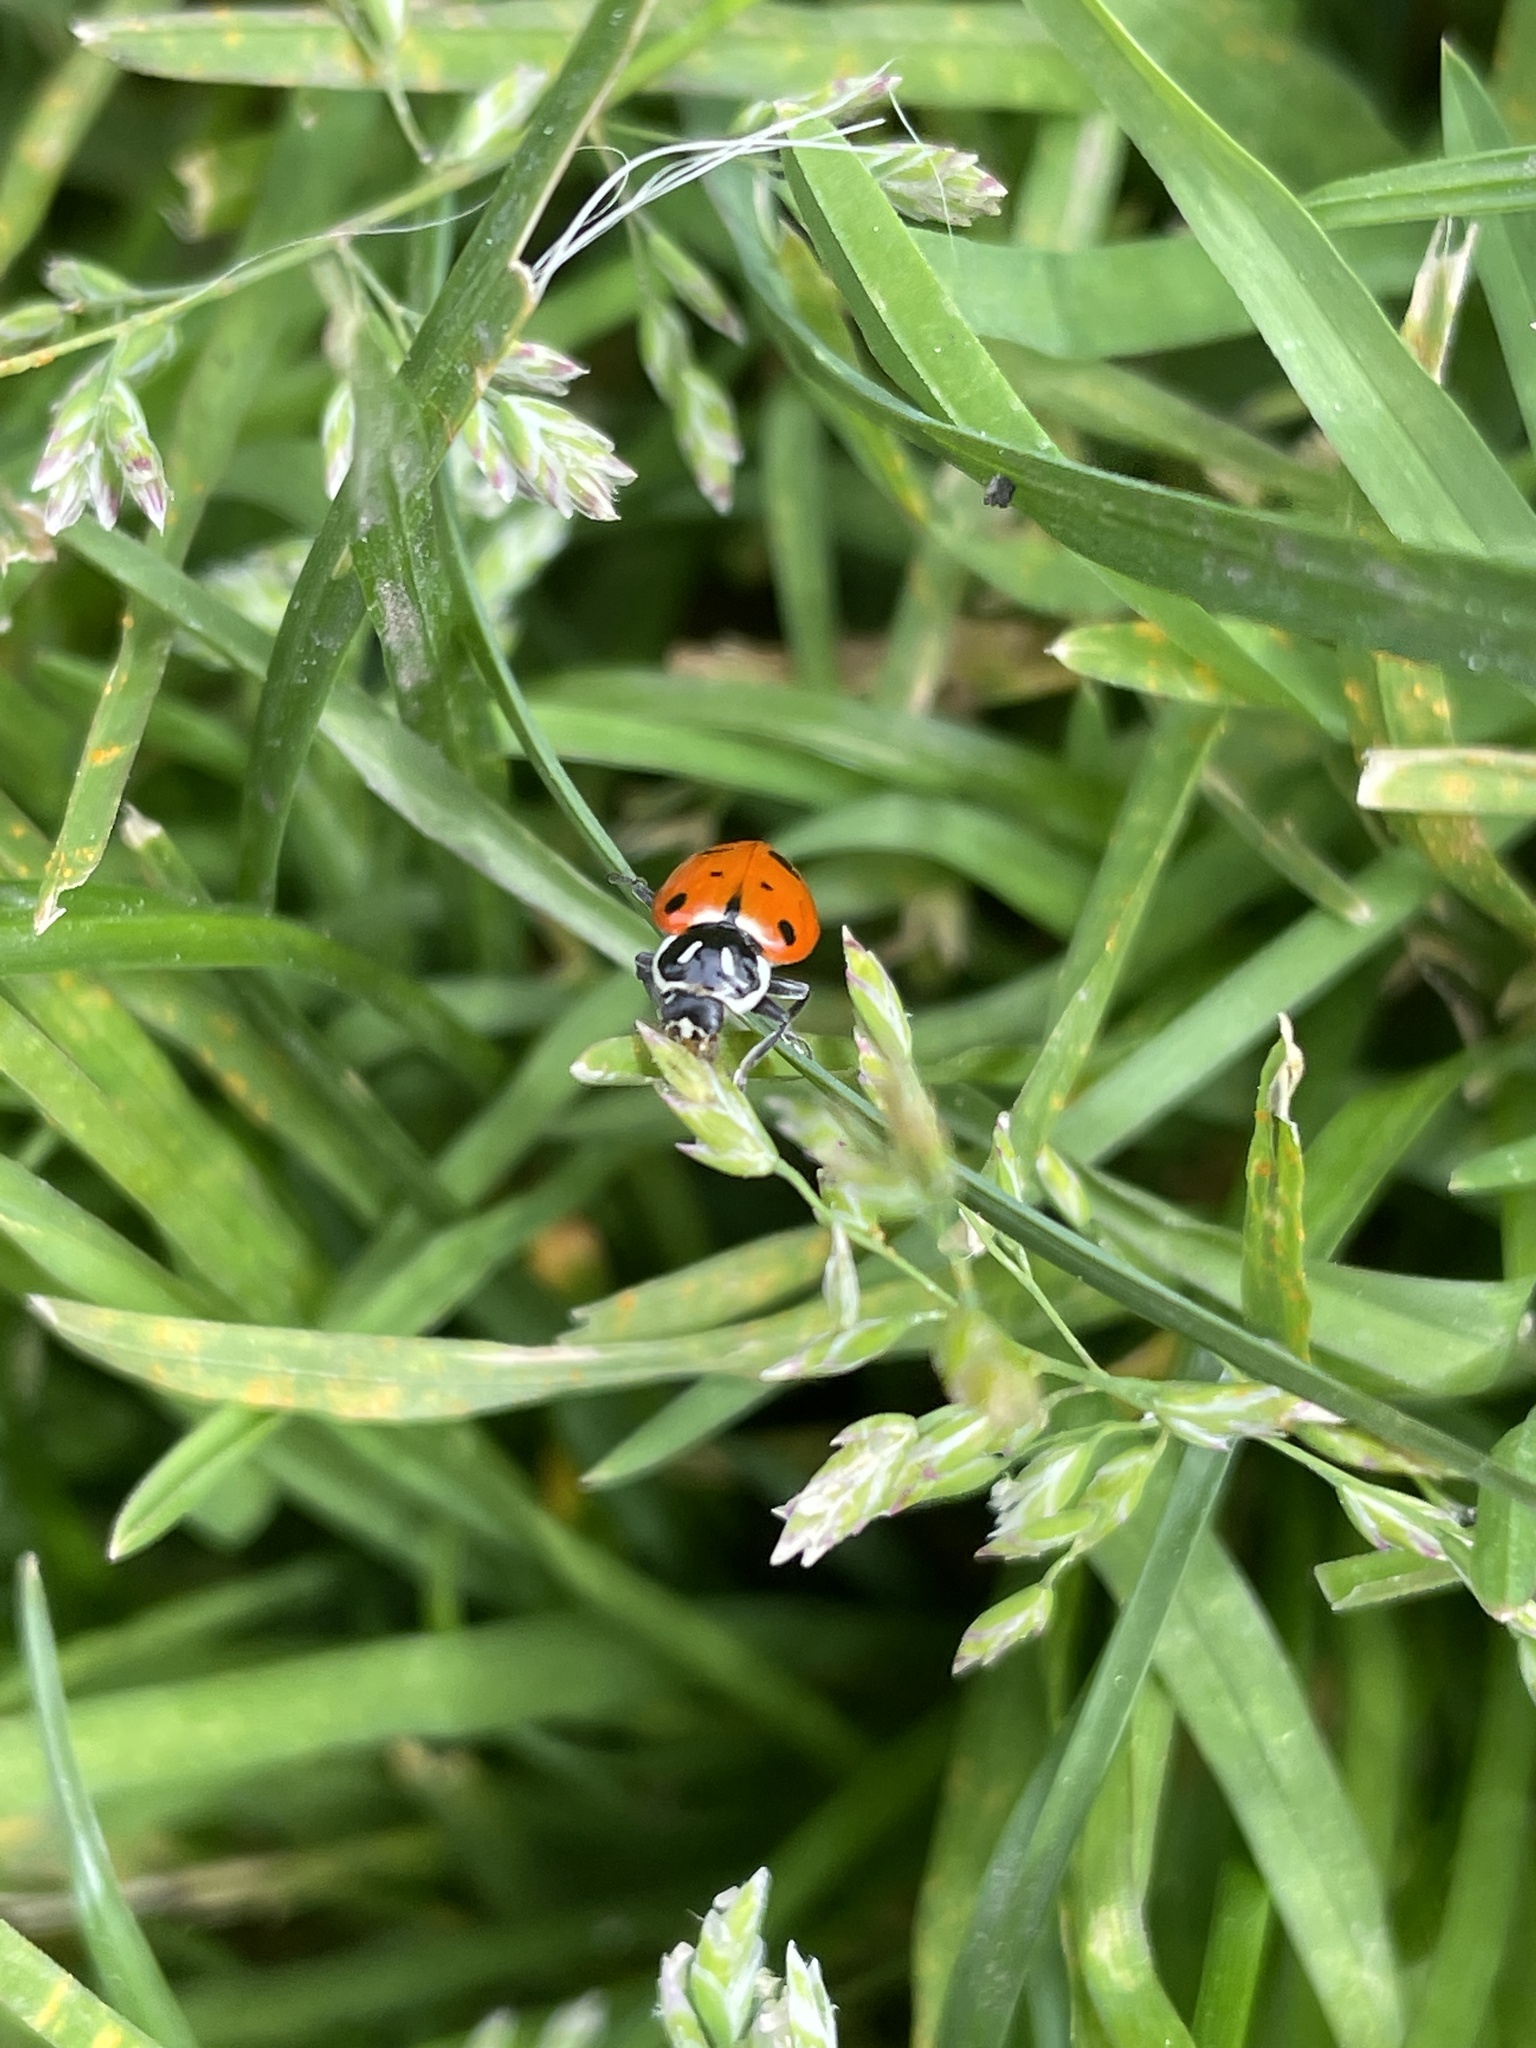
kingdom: Animalia
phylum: Arthropoda
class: Insecta
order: Coleoptera
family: Coccinellidae
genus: Hippodamia
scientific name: Hippodamia convergens
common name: Convergent lady beetle
